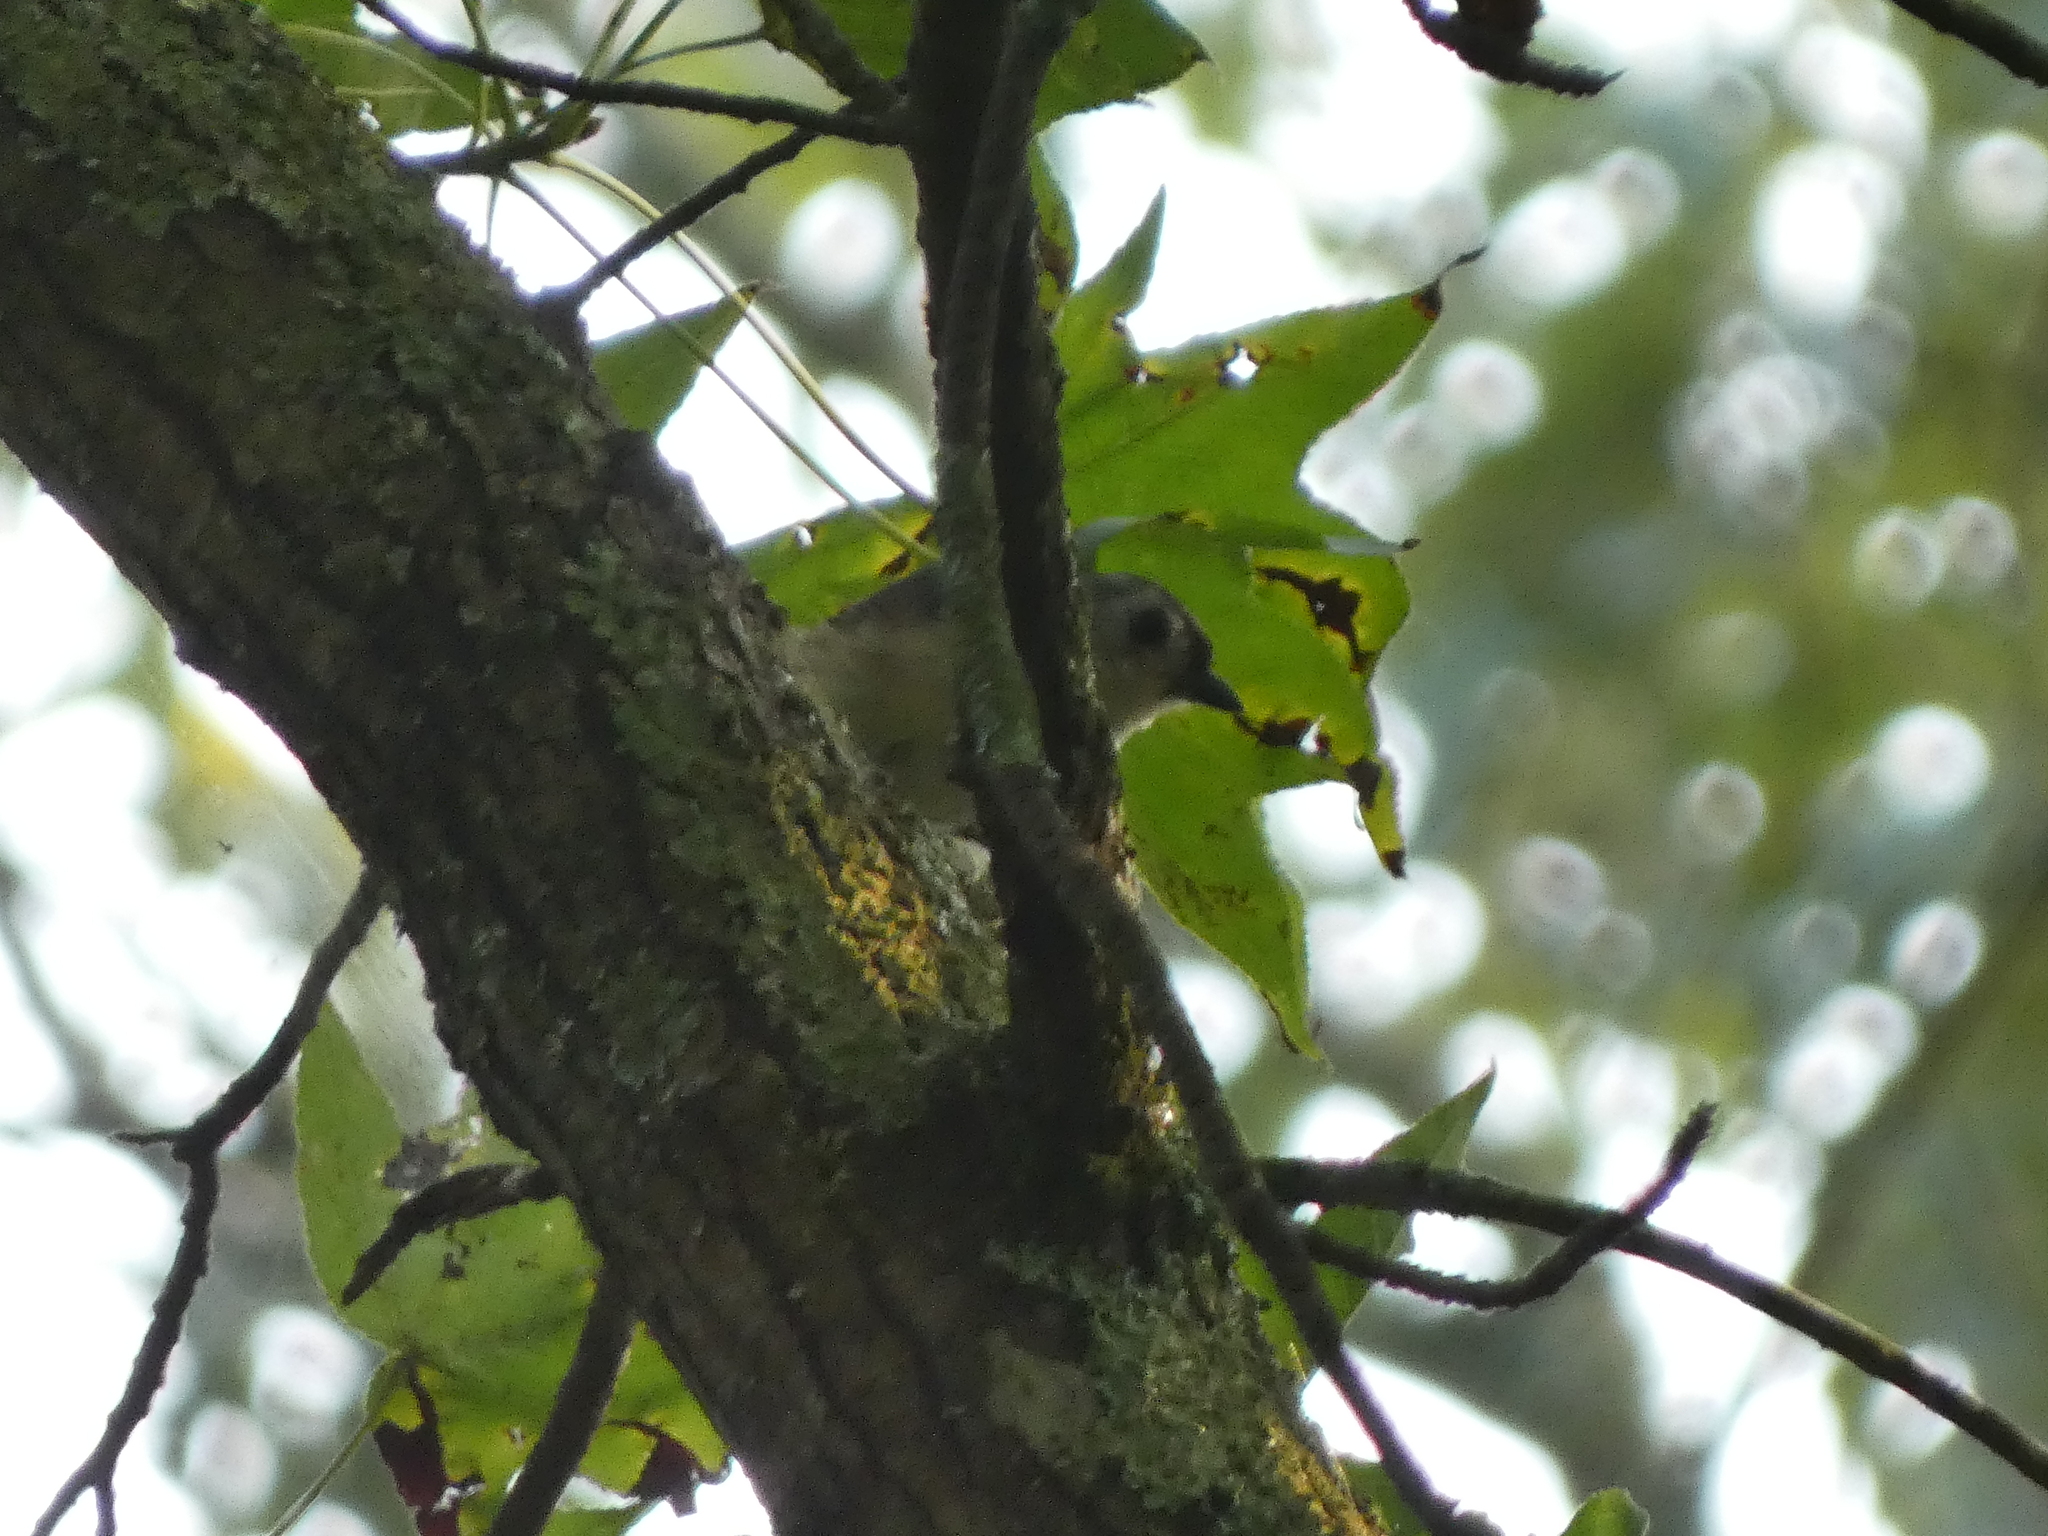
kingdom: Animalia
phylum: Chordata
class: Aves
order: Passeriformes
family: Paridae
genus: Baeolophus
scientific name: Baeolophus bicolor
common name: Tufted titmouse
